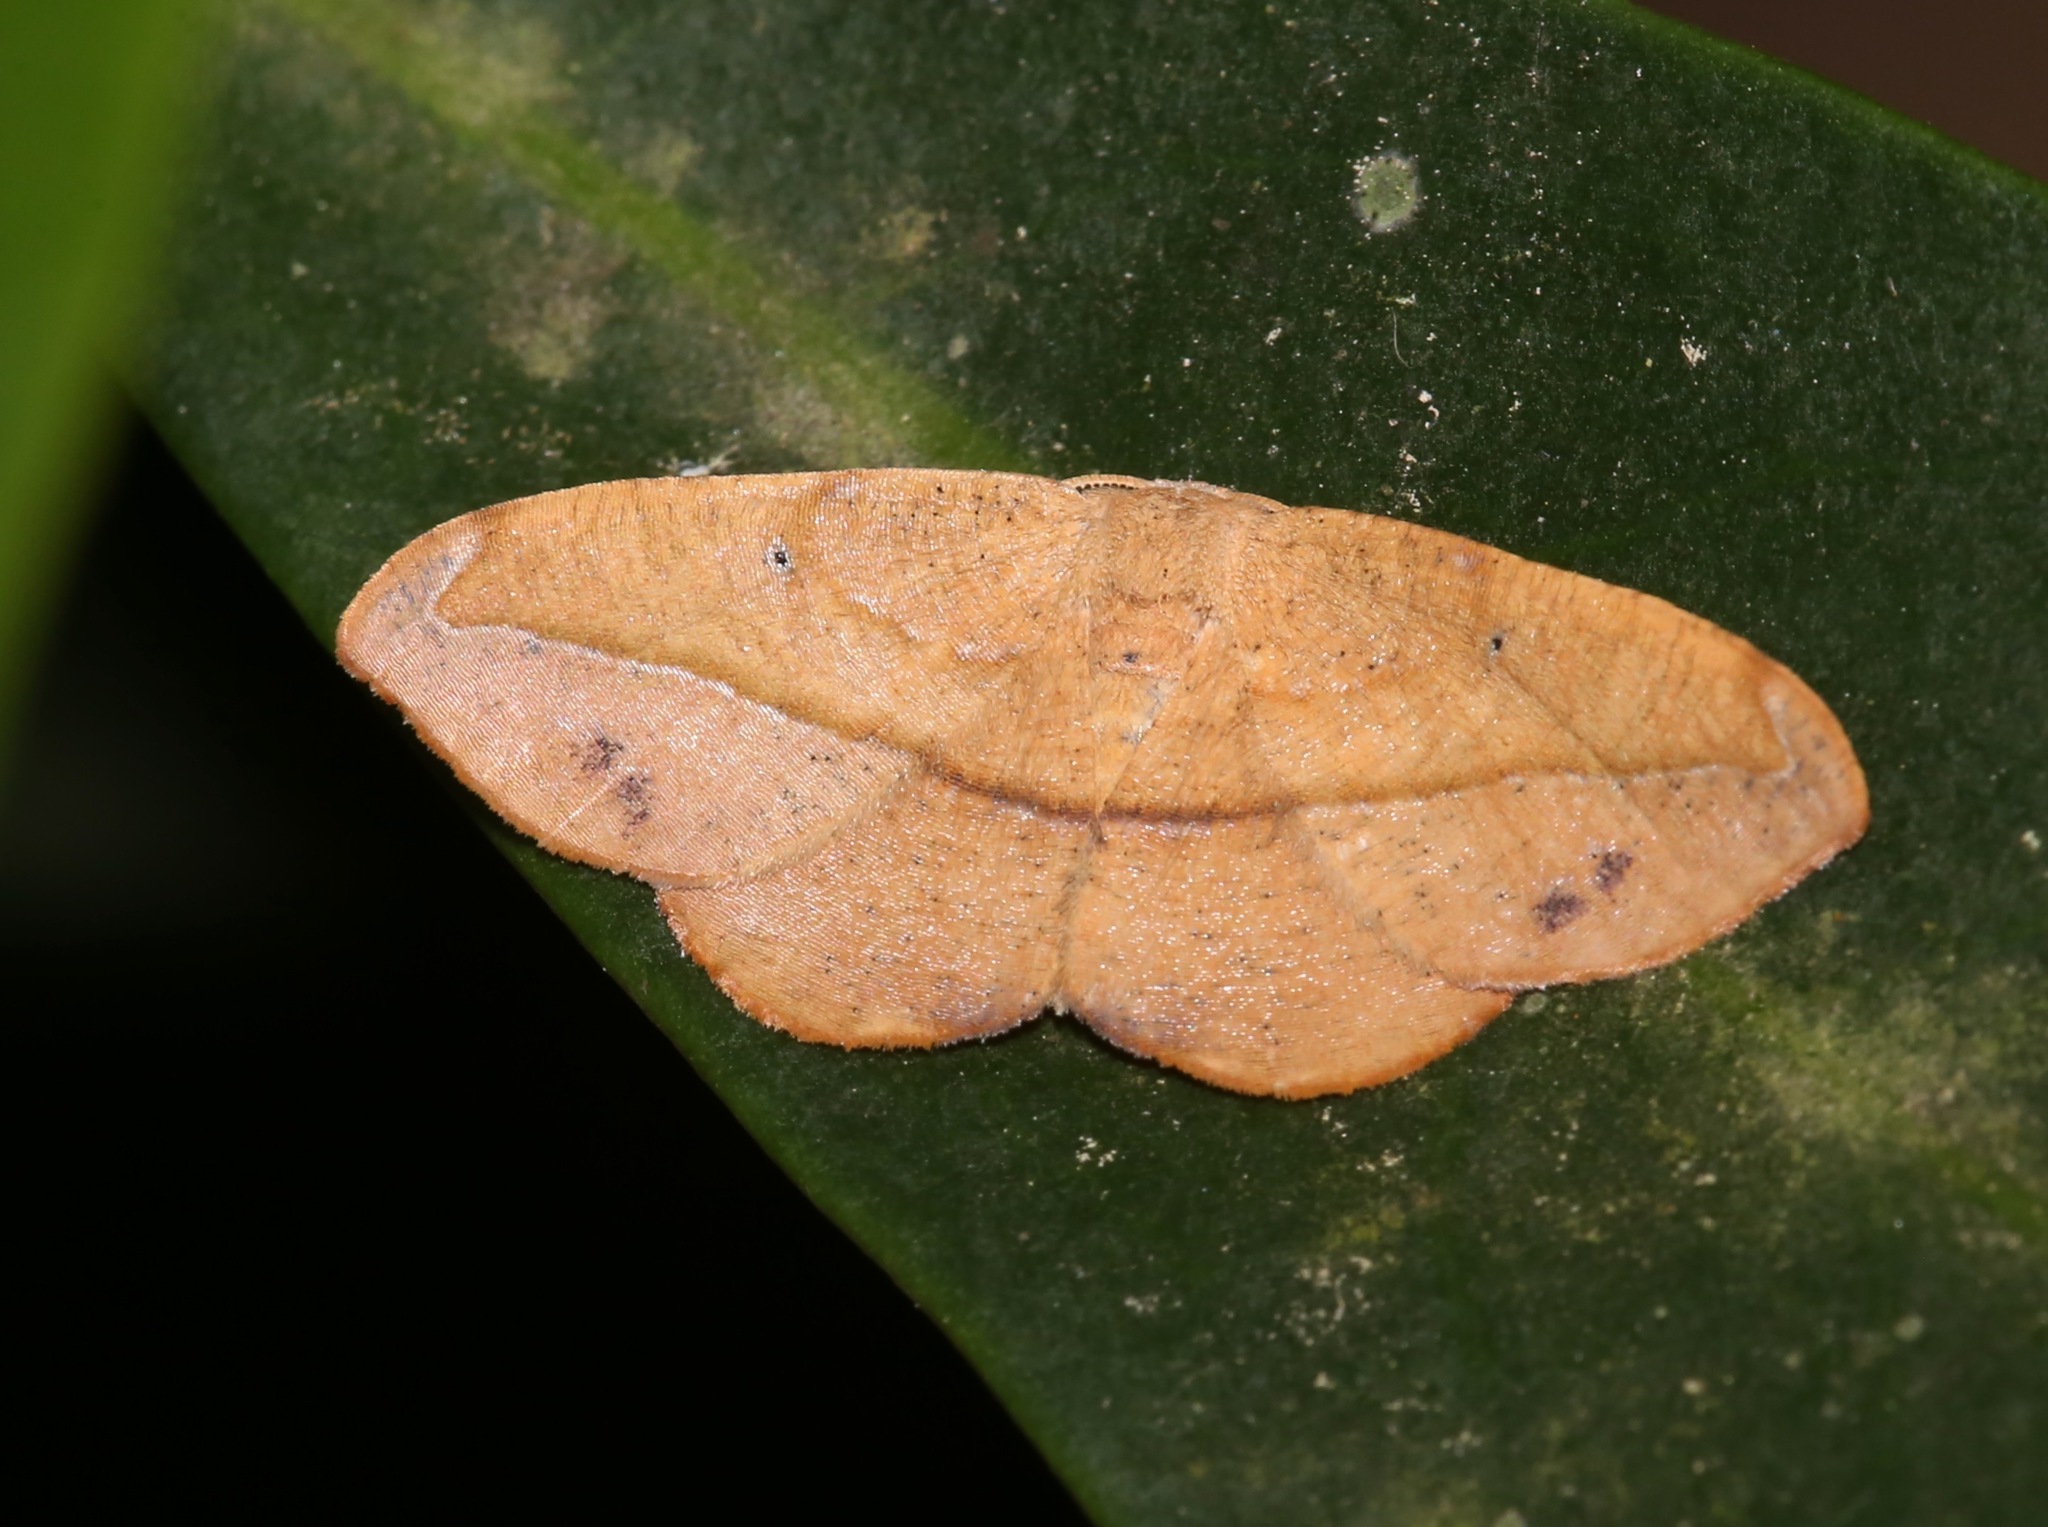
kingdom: Animalia
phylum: Arthropoda
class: Insecta
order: Lepidoptera
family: Geometridae
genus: Patalene
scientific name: Patalene olyzonaria
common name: Juniper geometer moth
